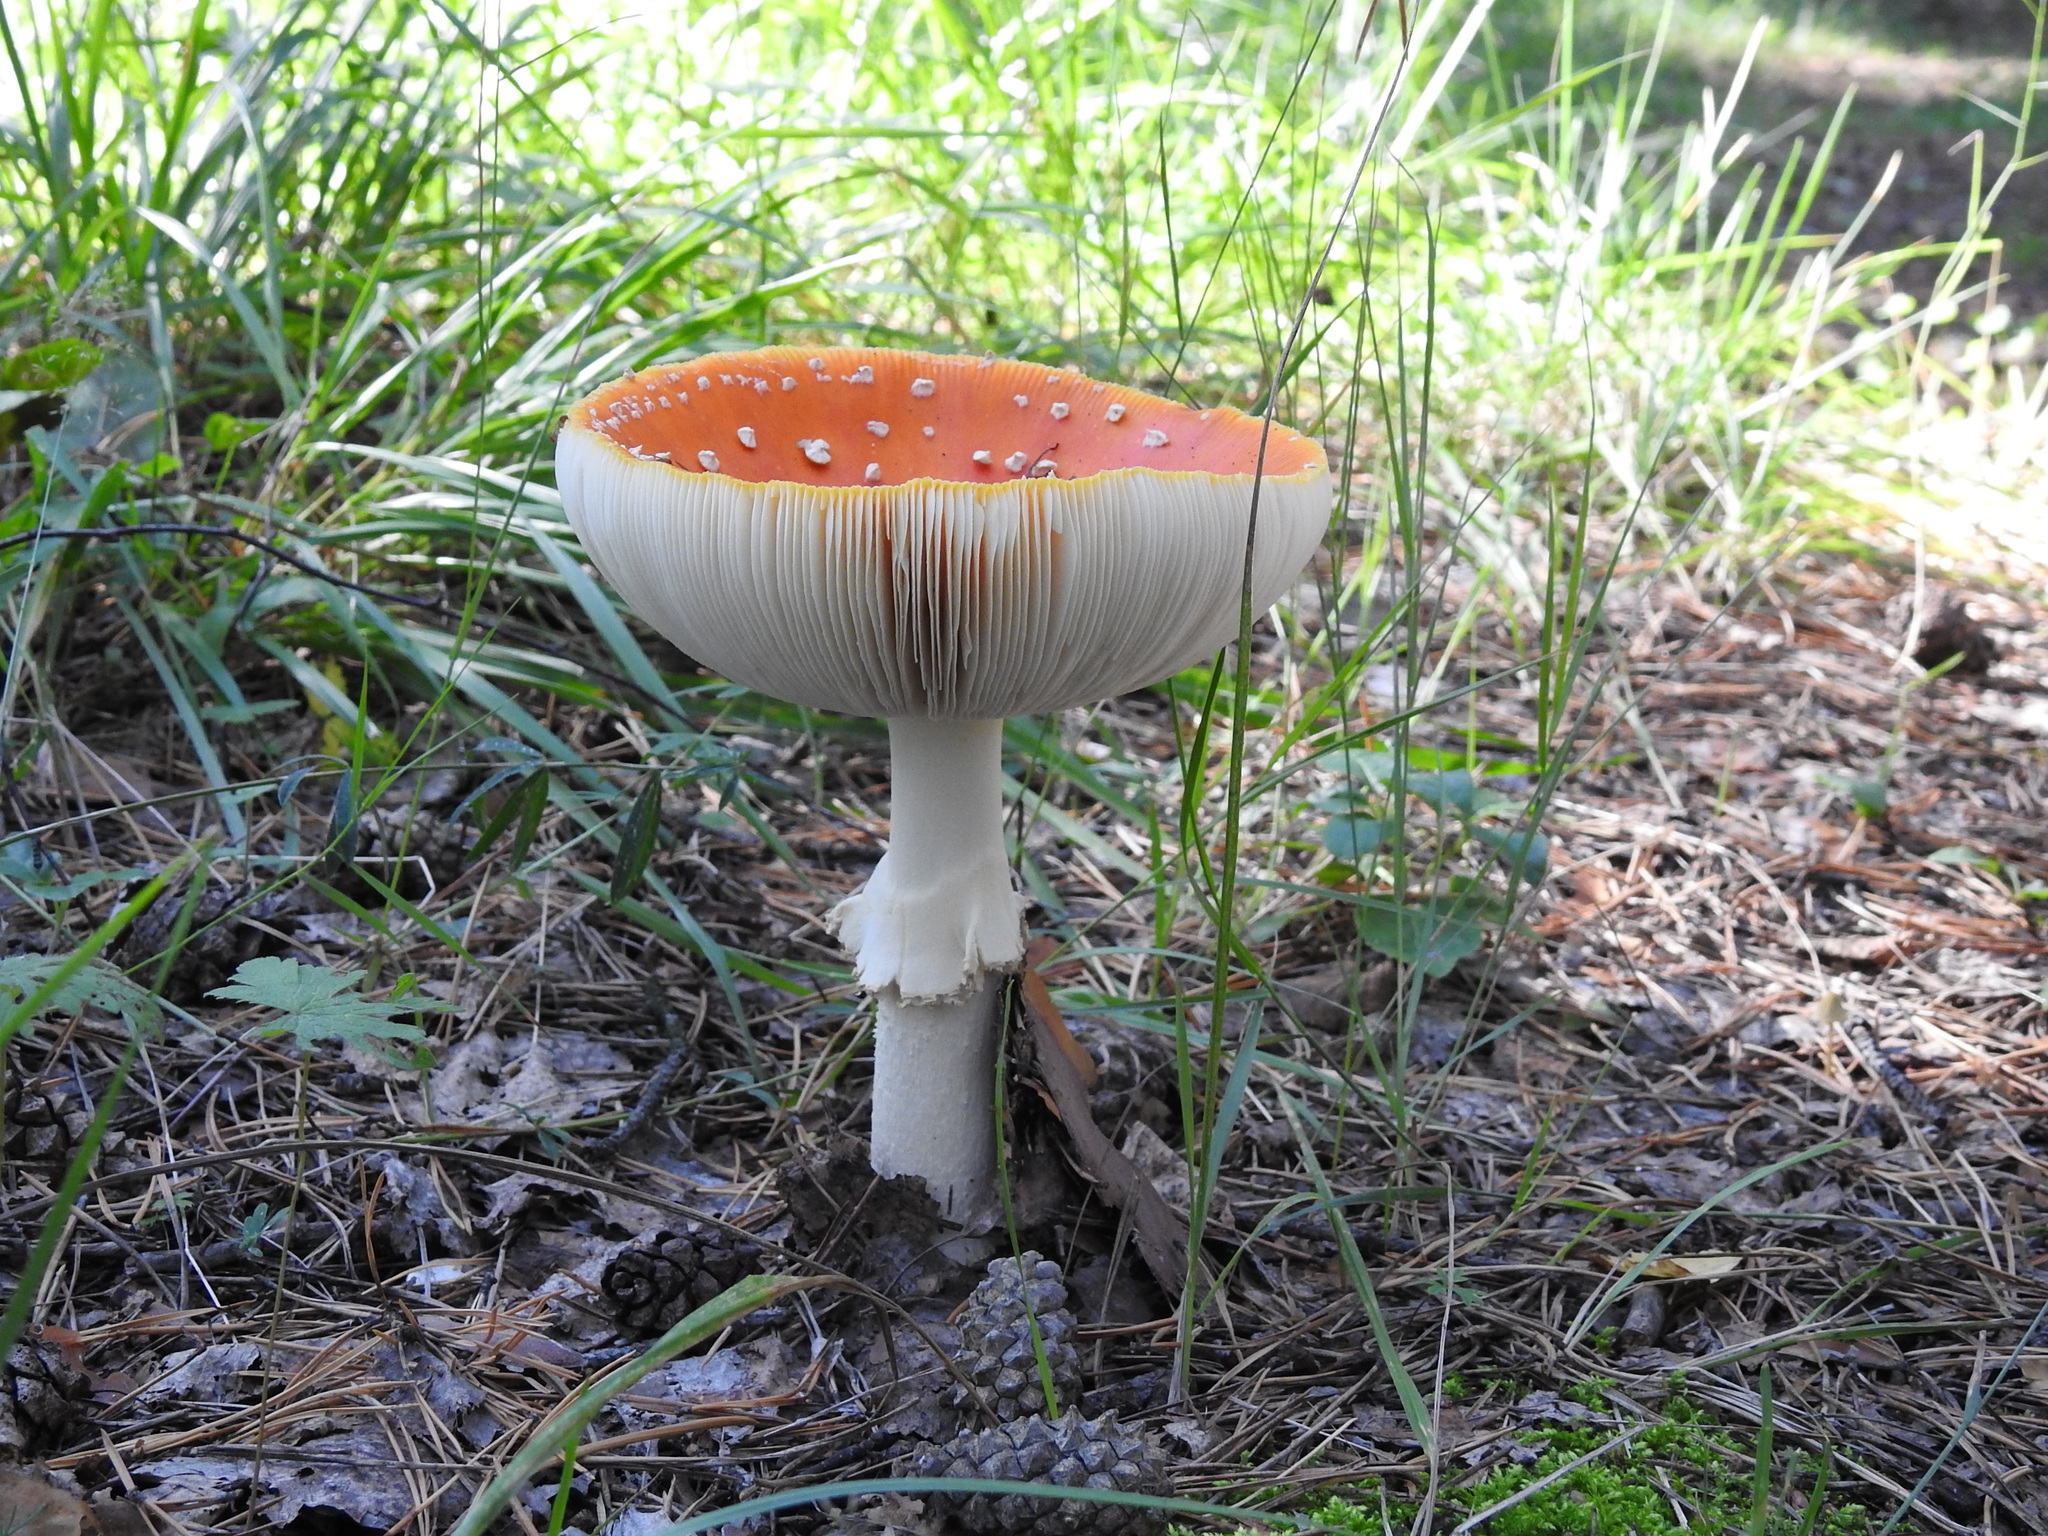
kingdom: Fungi
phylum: Basidiomycota
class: Agaricomycetes
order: Agaricales
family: Amanitaceae
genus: Amanita
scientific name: Amanita muscaria
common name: Fly agaric
